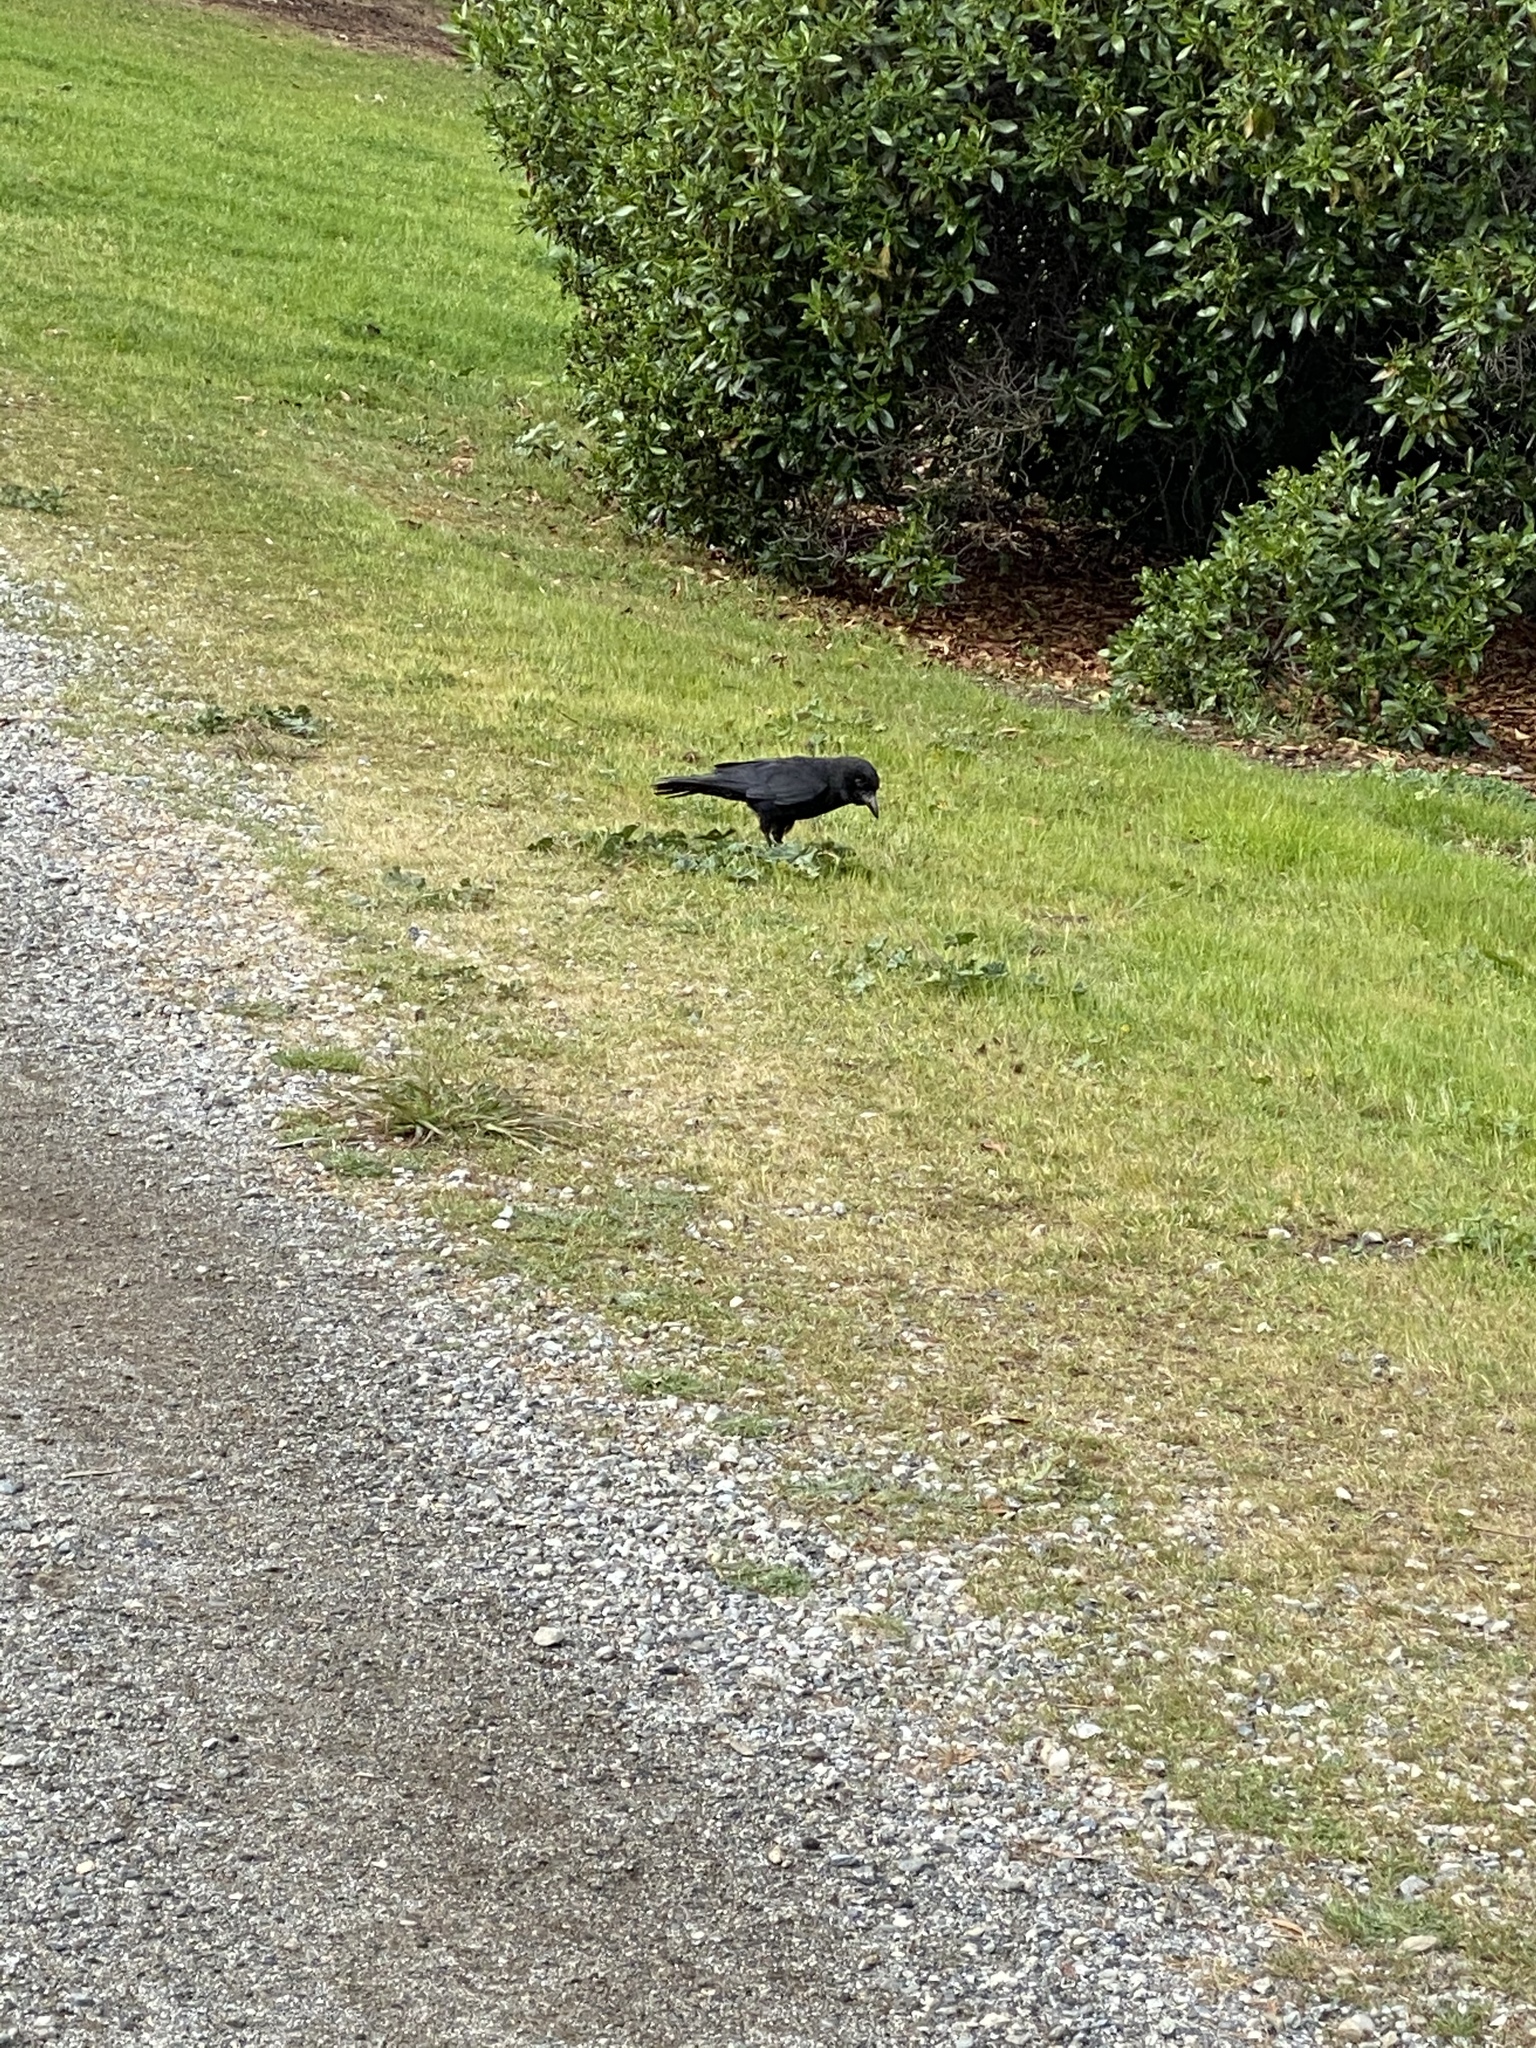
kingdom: Animalia
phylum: Chordata
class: Aves
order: Passeriformes
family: Corvidae
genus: Corvus
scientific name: Corvus brachyrhynchos
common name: American crow
